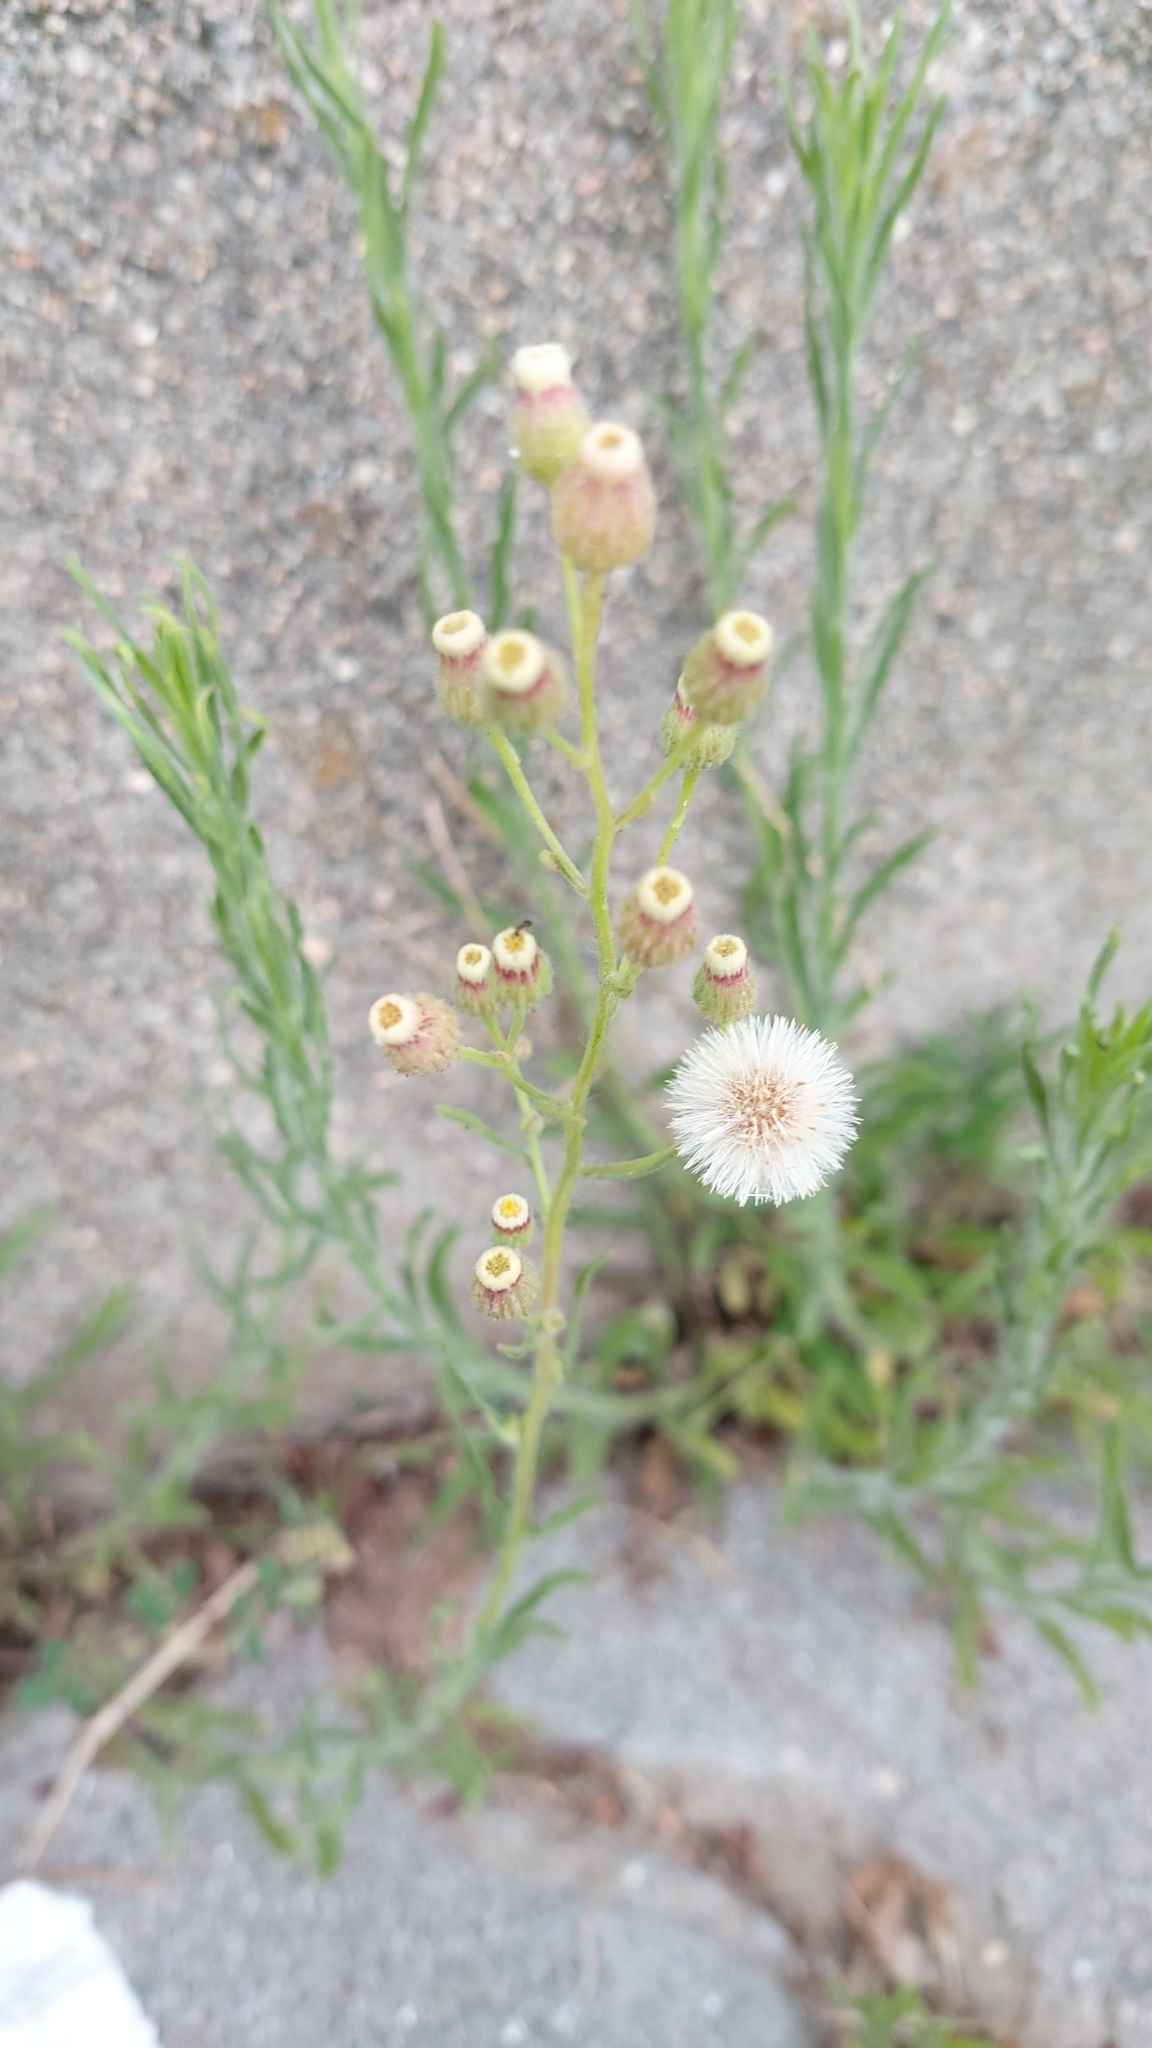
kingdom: Plantae
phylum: Tracheophyta
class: Magnoliopsida
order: Asterales
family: Asteraceae
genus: Erigeron
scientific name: Erigeron bonariensis
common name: Argentine fleabane
